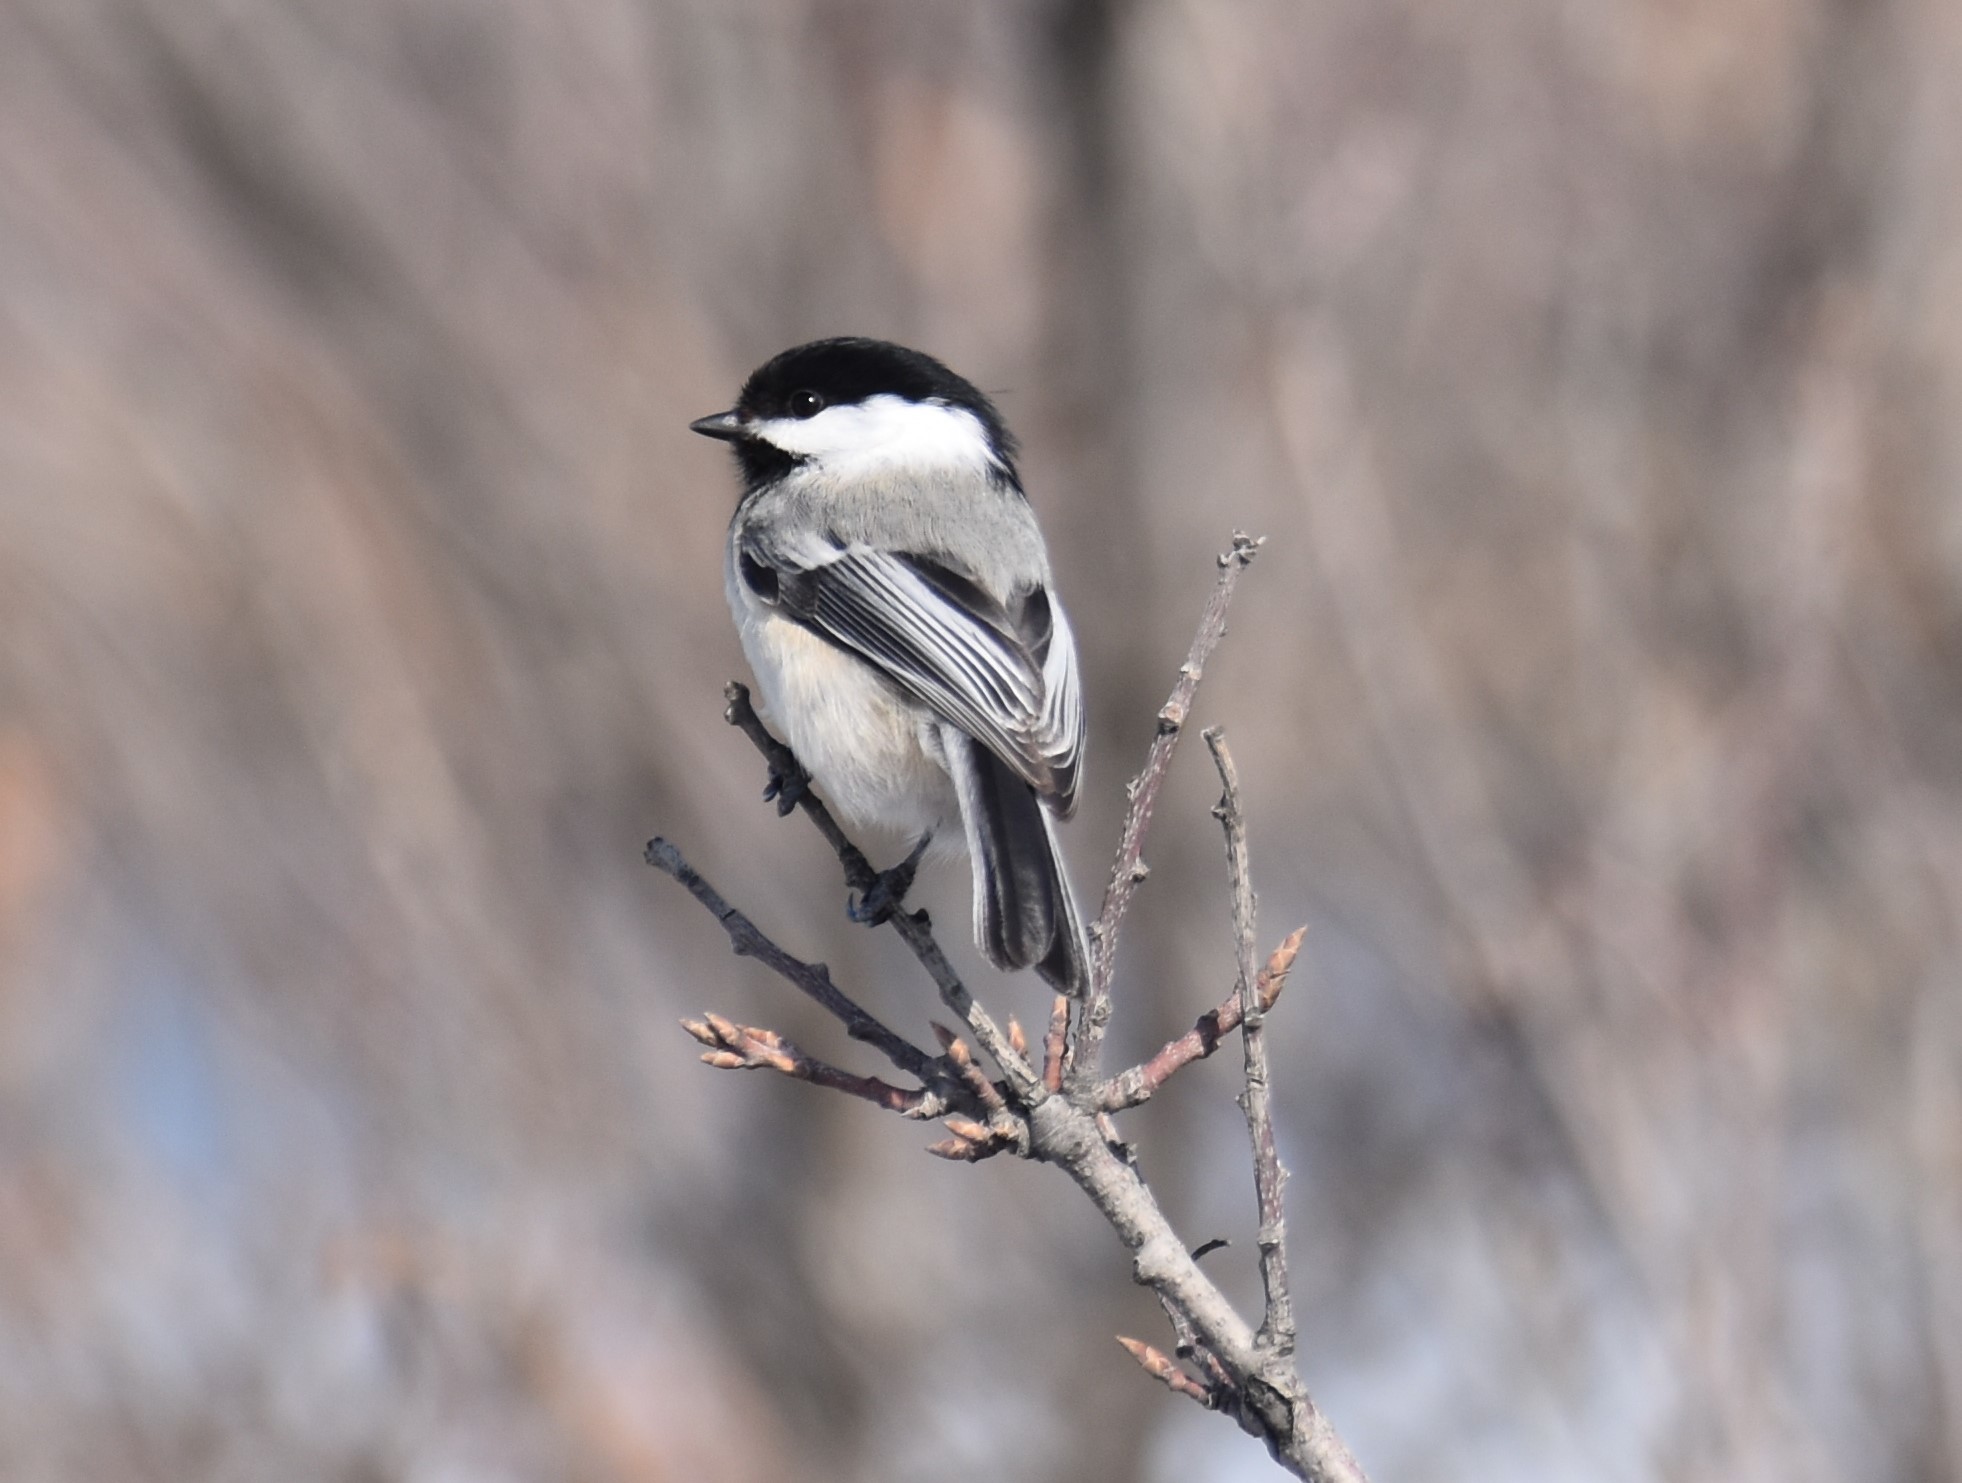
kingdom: Animalia
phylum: Chordata
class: Aves
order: Passeriformes
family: Paridae
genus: Poecile
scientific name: Poecile atricapillus
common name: Black-capped chickadee
